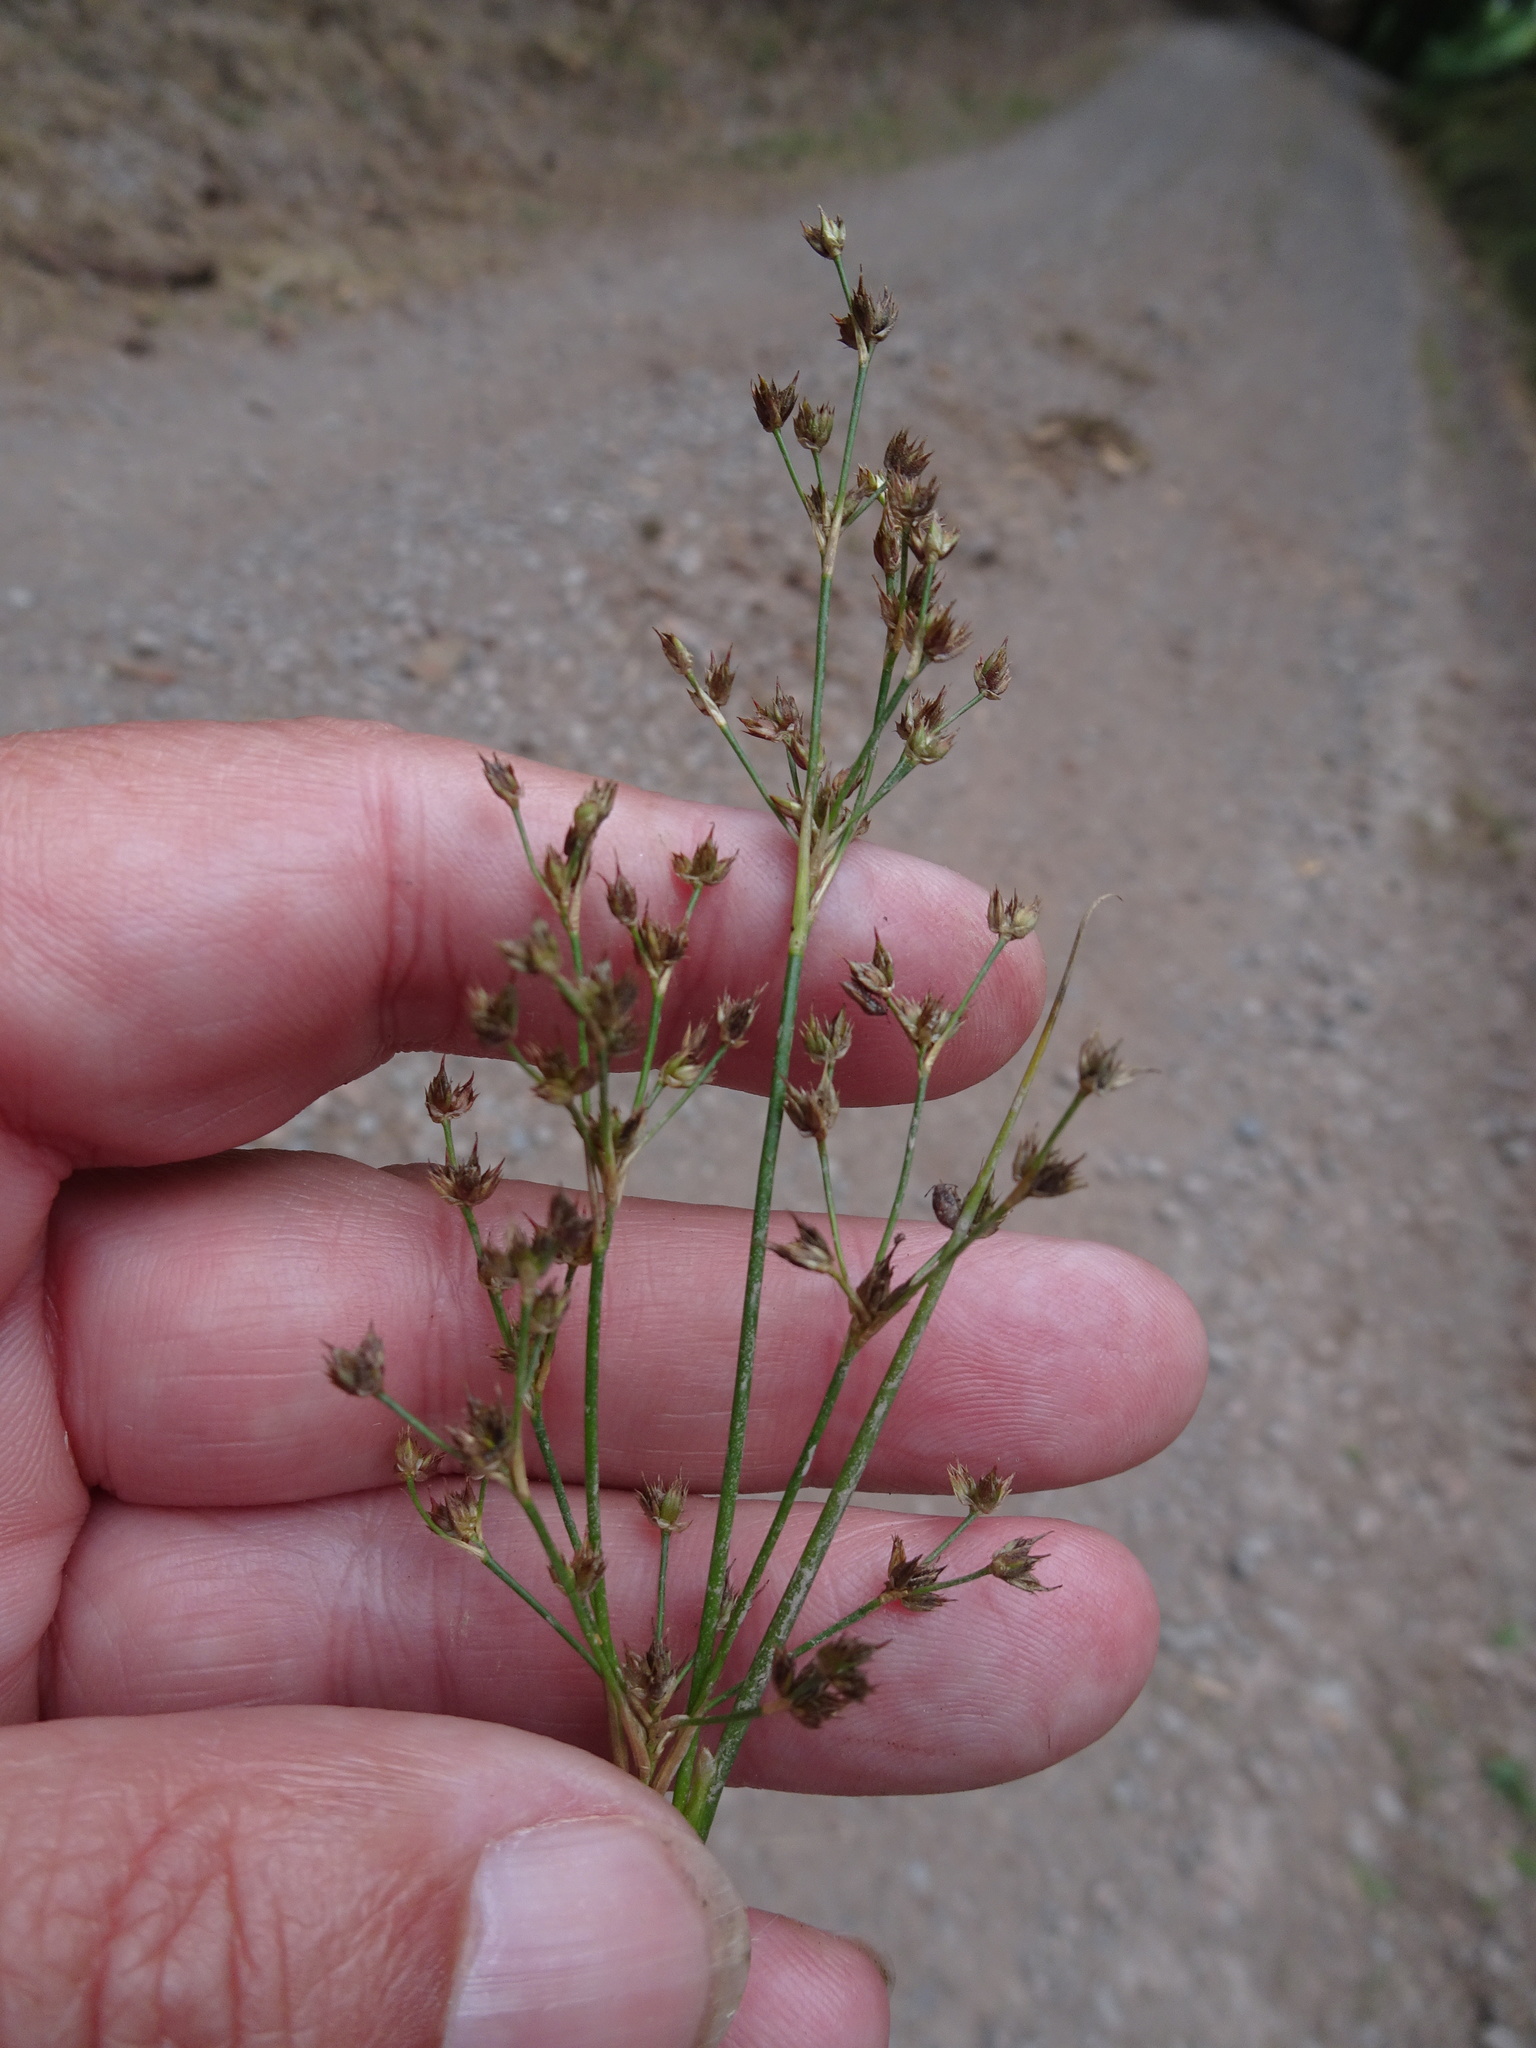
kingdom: Plantae
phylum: Tracheophyta
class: Liliopsida
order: Poales
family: Juncaceae
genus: Juncus
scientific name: Juncus acutiflorus
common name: Sharp-flowered rush
